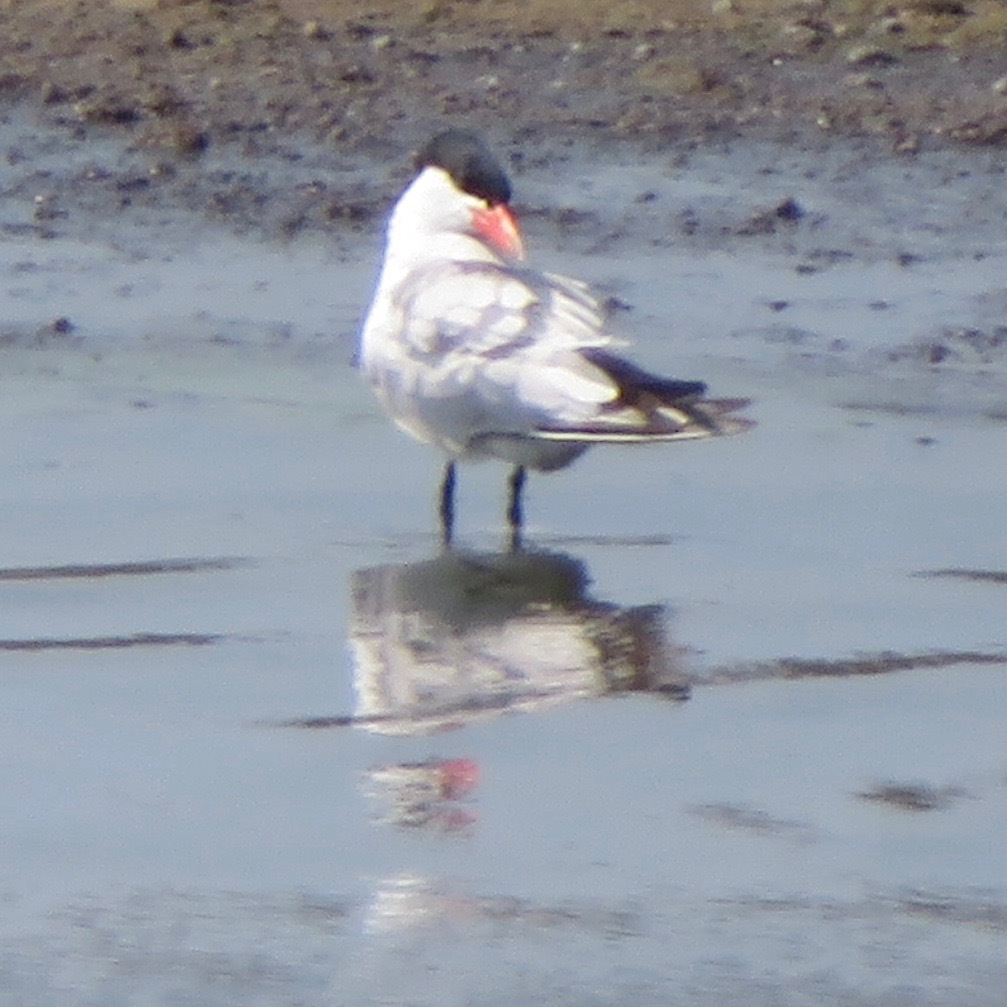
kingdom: Animalia
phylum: Chordata
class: Aves
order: Charadriiformes
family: Laridae
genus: Hydroprogne
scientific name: Hydroprogne caspia
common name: Caspian tern
